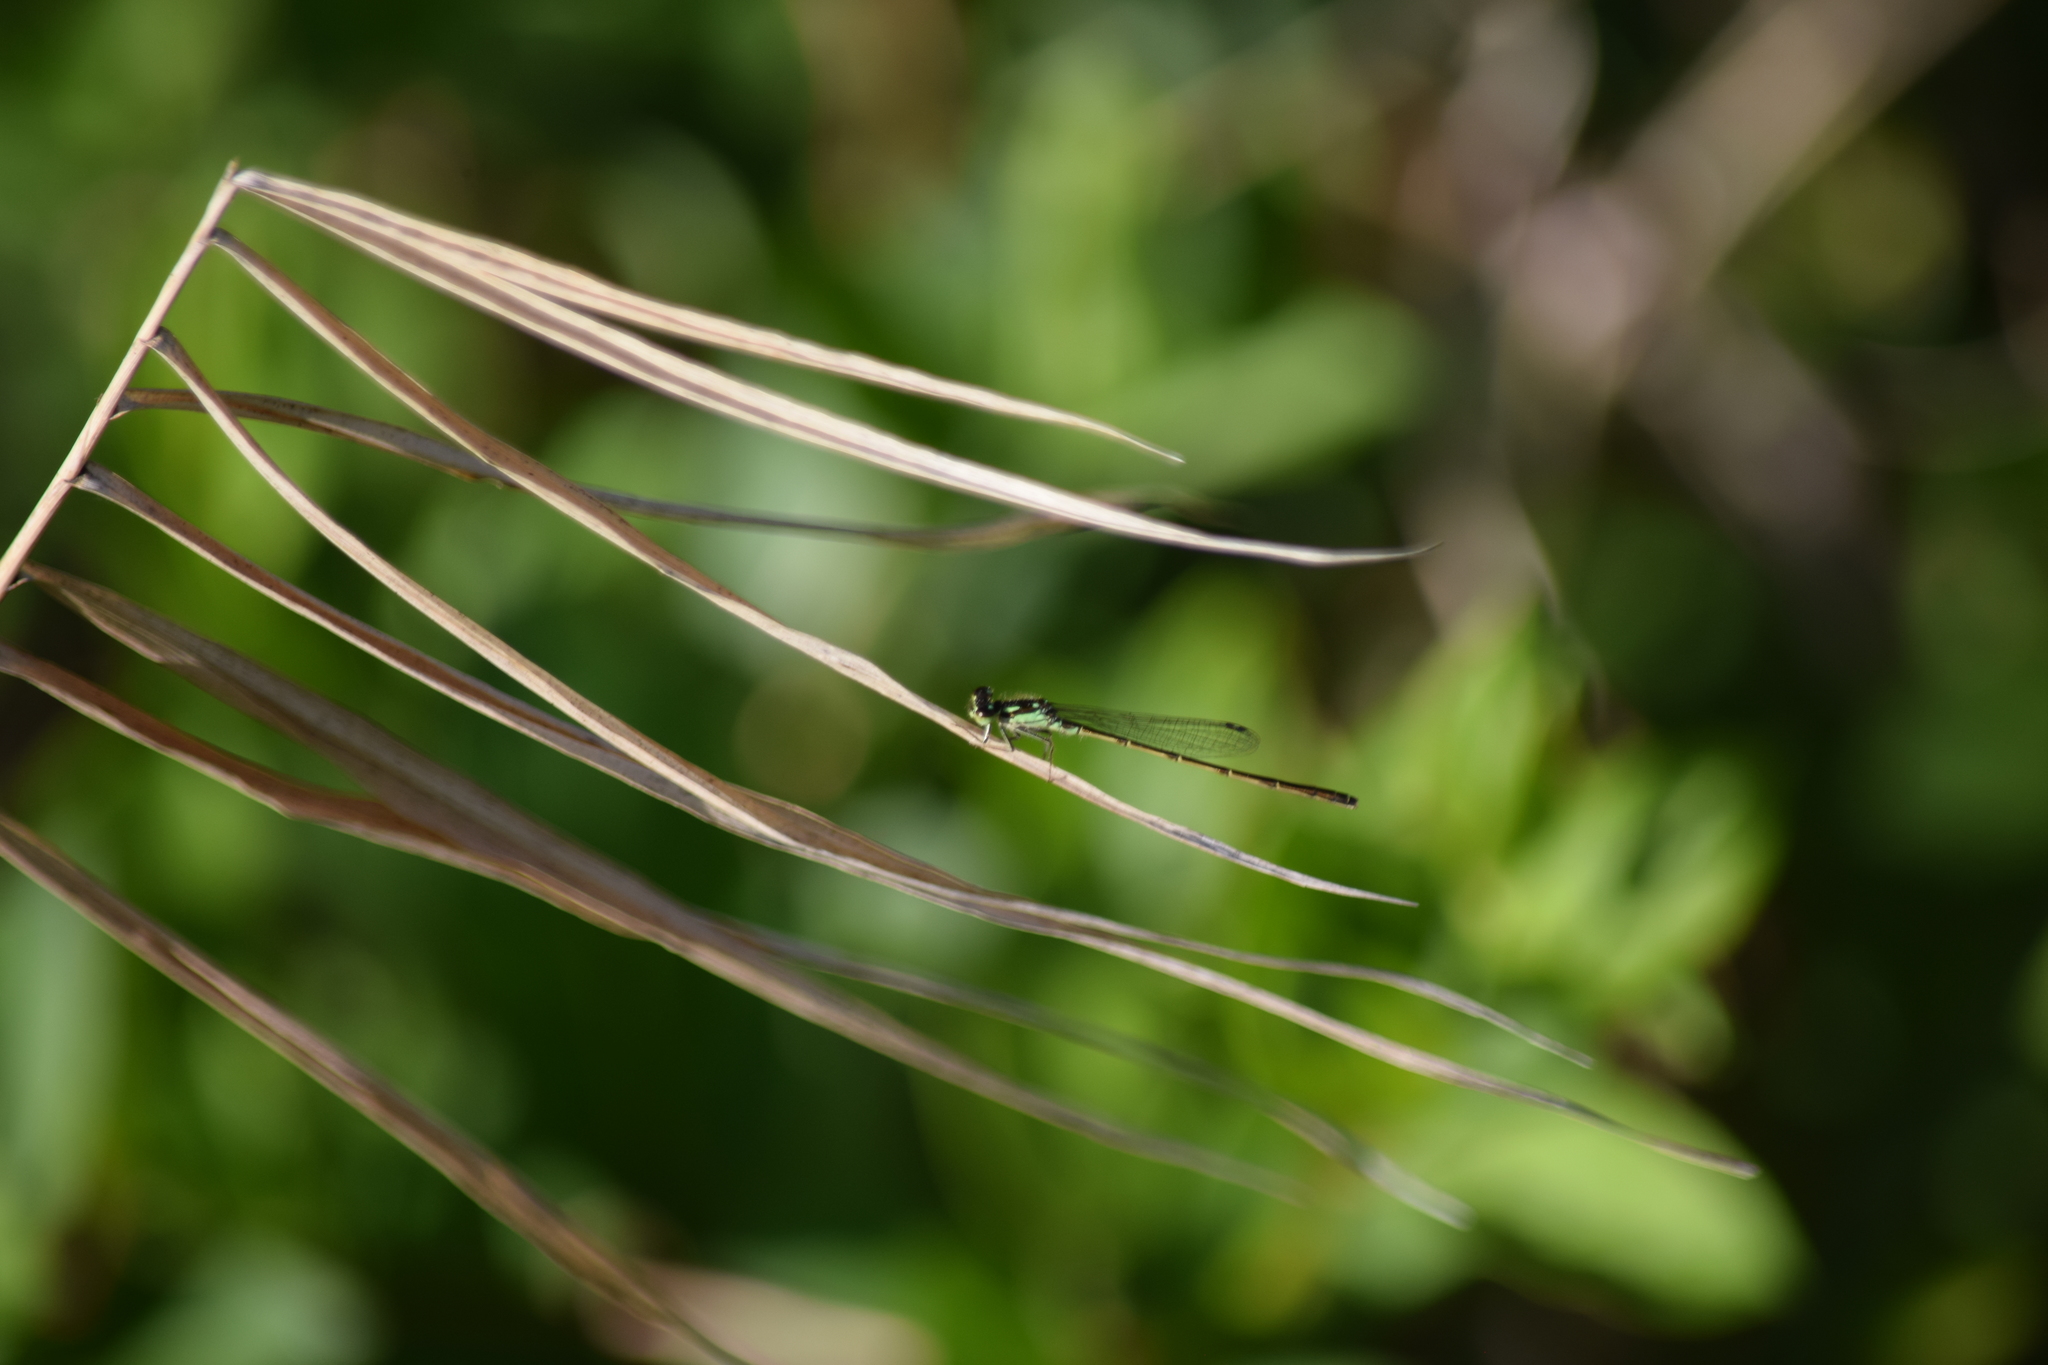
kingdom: Animalia
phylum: Arthropoda
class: Insecta
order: Odonata
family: Coenagrionidae
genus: Ischnura
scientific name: Ischnura posita
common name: Fragile forktail
